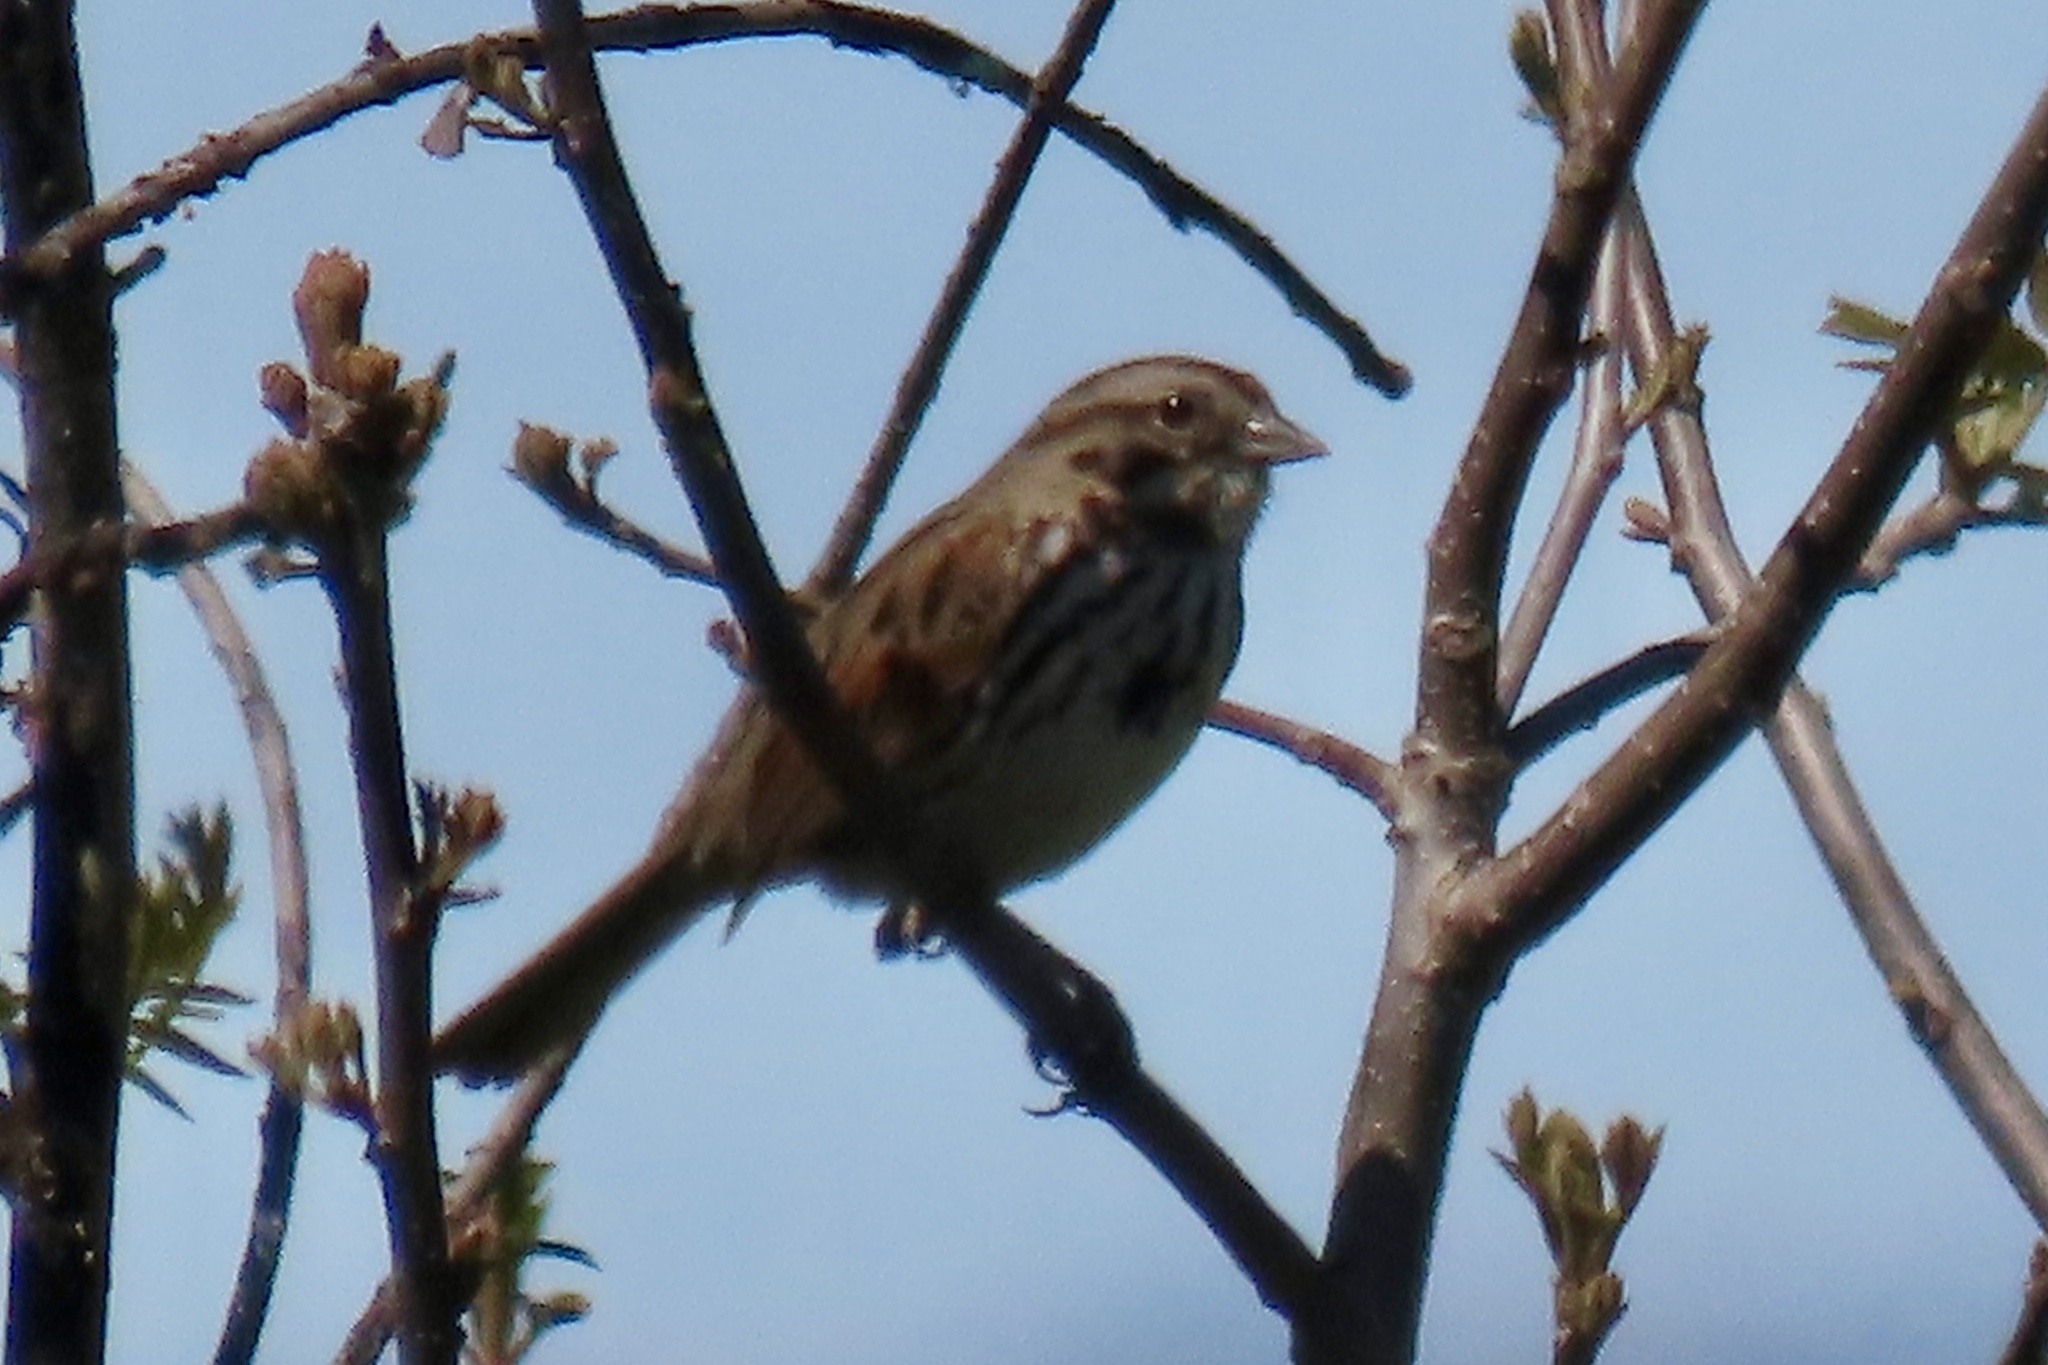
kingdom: Animalia
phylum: Chordata
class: Aves
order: Passeriformes
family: Passerellidae
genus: Melospiza
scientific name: Melospiza melodia
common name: Song sparrow
